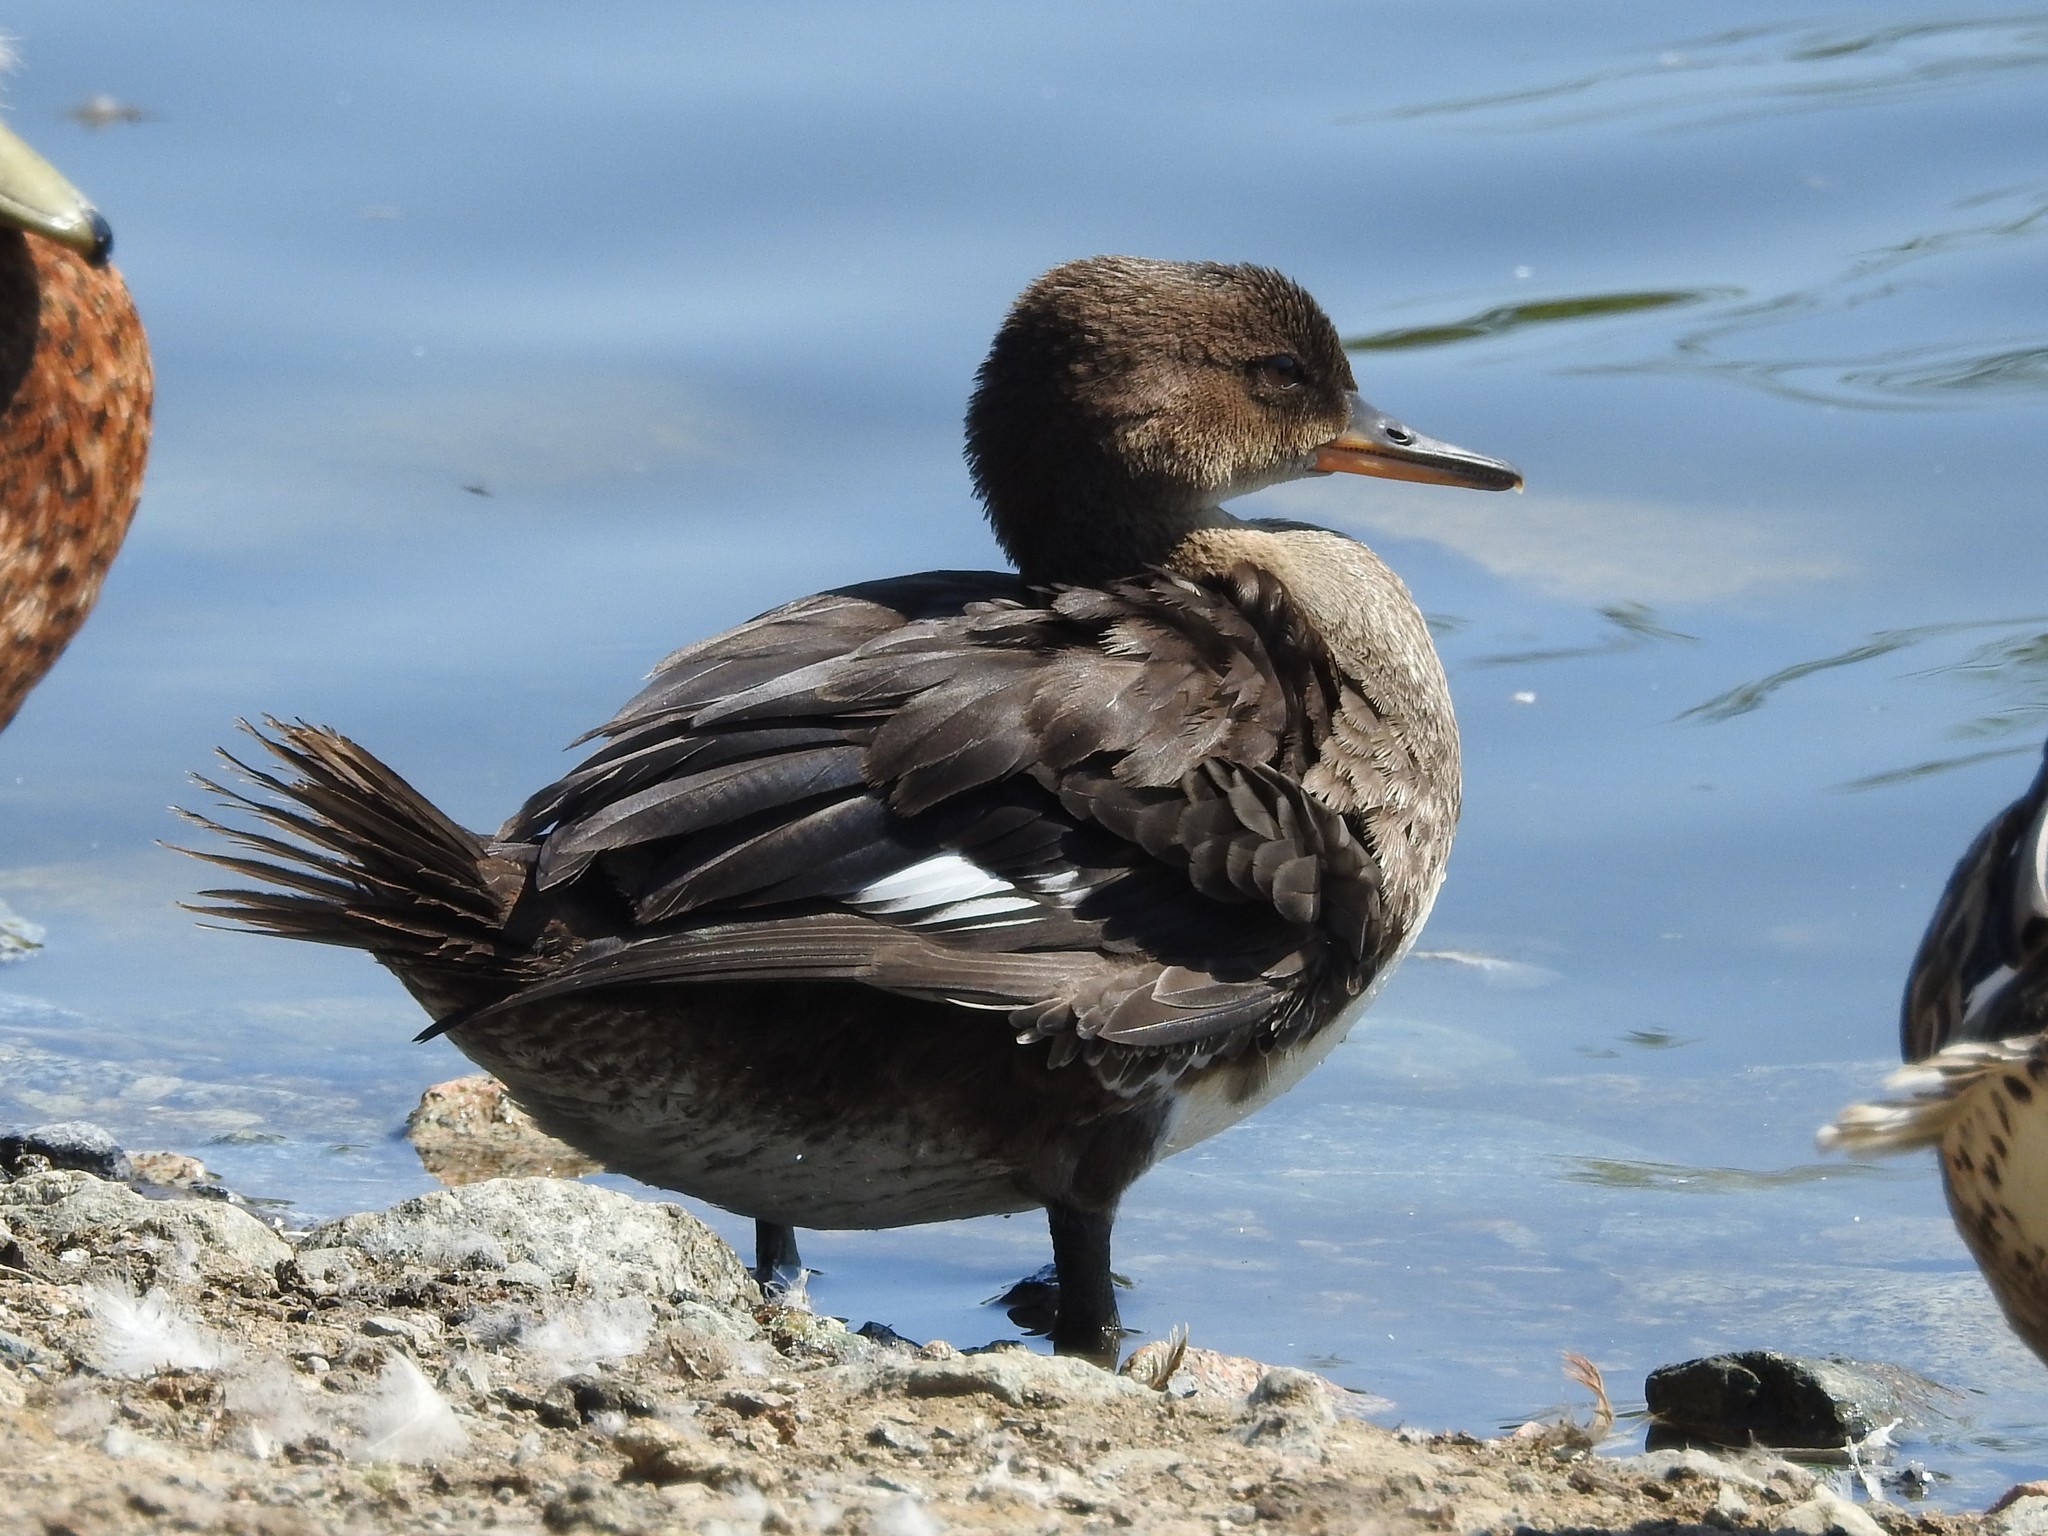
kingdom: Animalia
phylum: Chordata
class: Aves
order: Anseriformes
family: Anatidae
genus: Lophodytes
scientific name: Lophodytes cucullatus
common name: Hooded merganser
